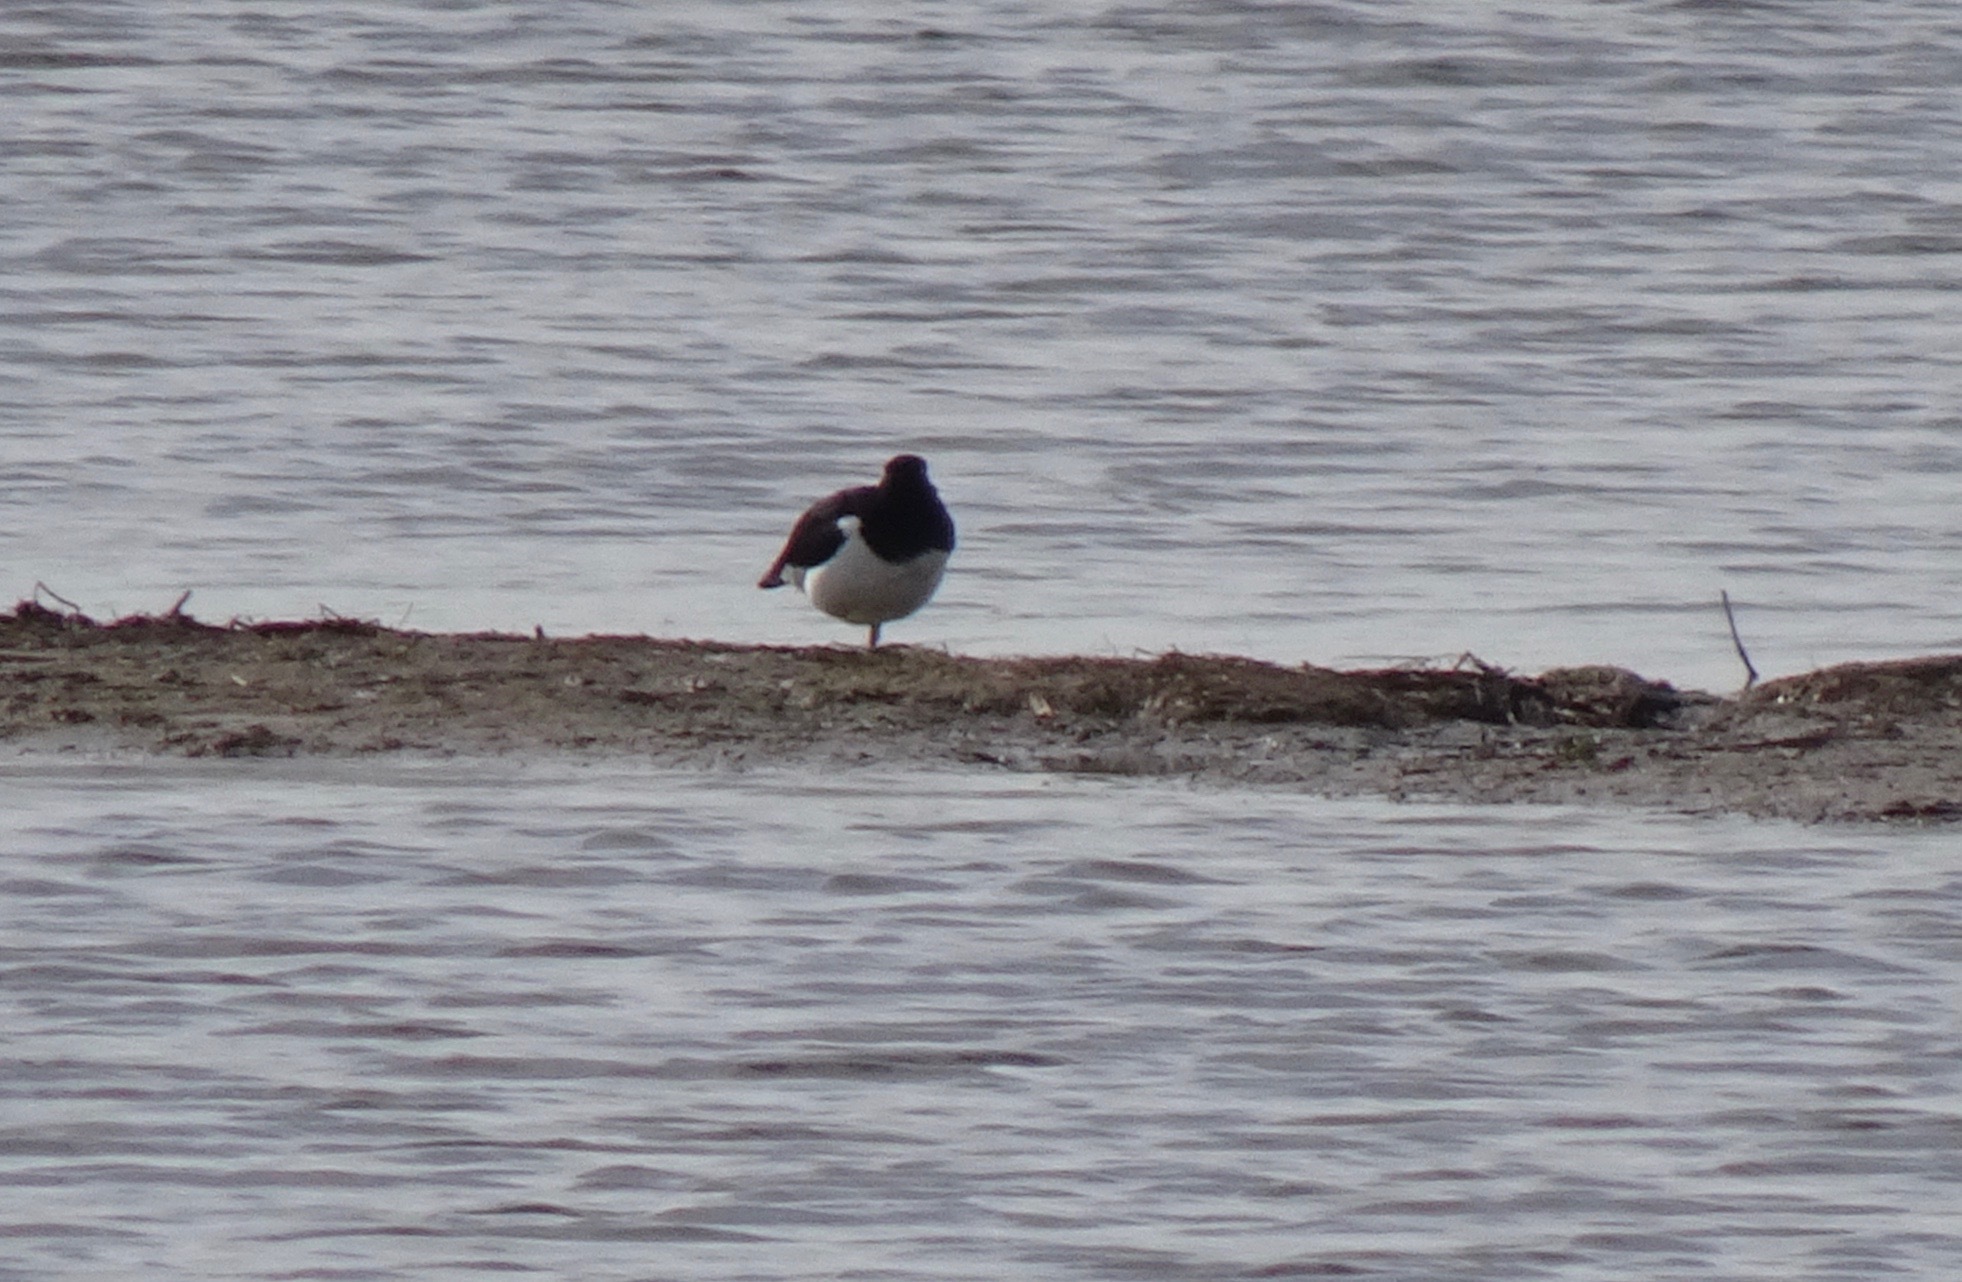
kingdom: Animalia
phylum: Chordata
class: Aves
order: Charadriiformes
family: Haematopodidae
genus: Haematopus
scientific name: Haematopus ostralegus
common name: Eurasian oystercatcher
